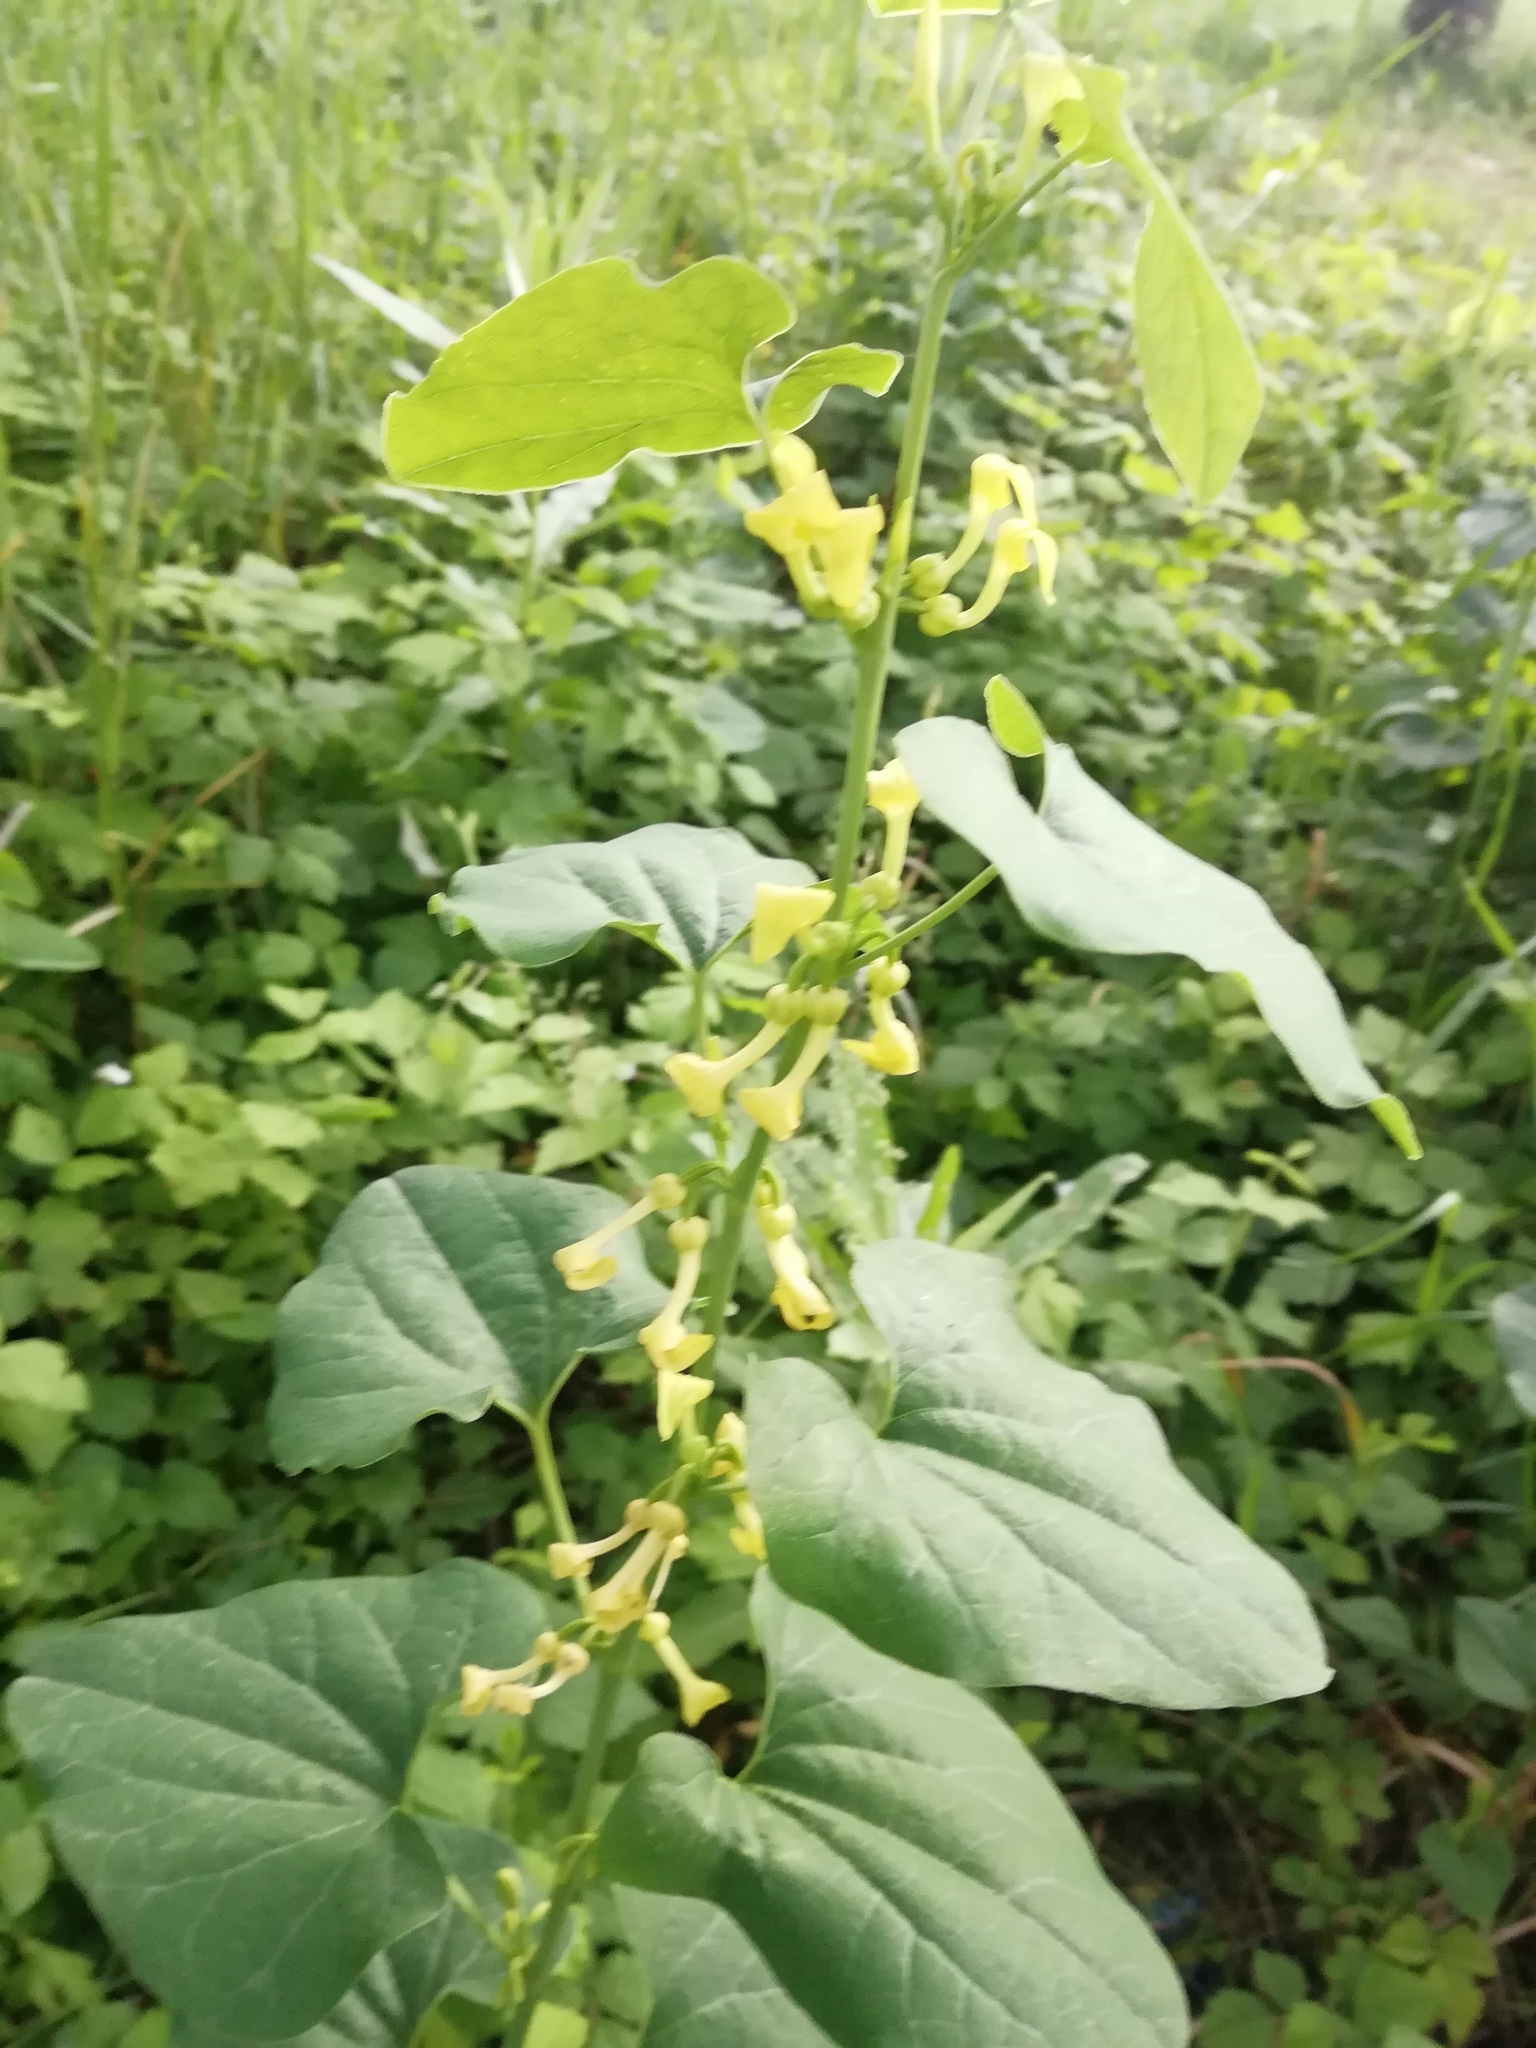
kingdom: Plantae
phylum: Tracheophyta
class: Magnoliopsida
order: Piperales
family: Aristolochiaceae
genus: Aristolochia
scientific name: Aristolochia clematitis
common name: Birthwort
